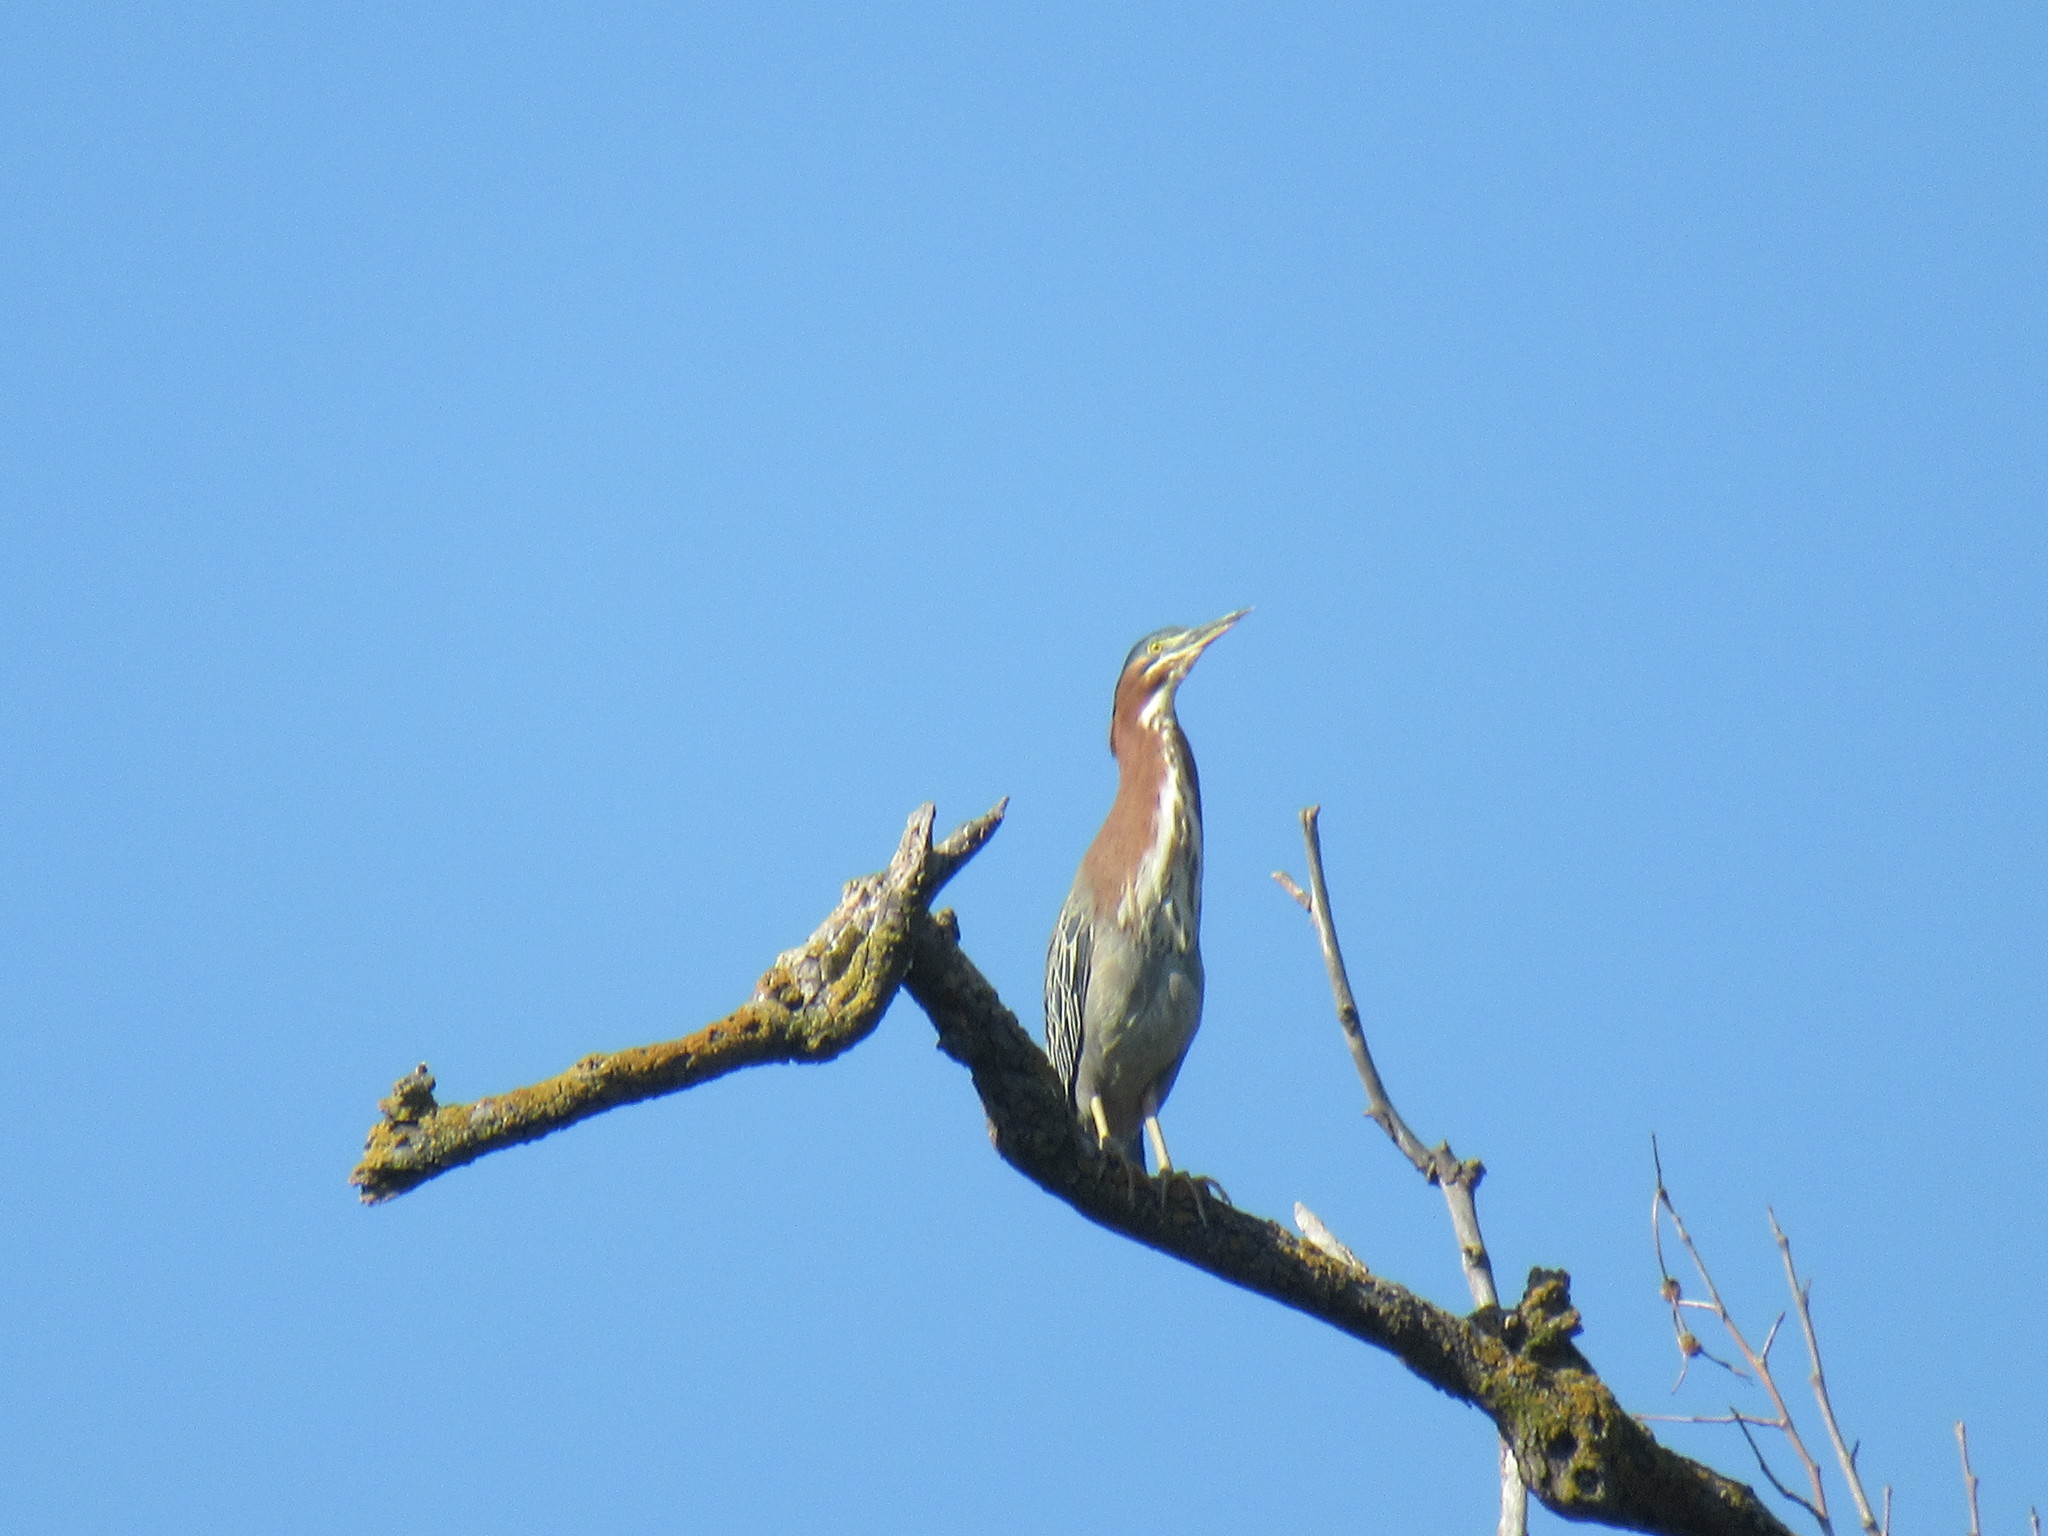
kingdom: Animalia
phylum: Chordata
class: Aves
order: Pelecaniformes
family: Ardeidae
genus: Butorides
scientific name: Butorides virescens
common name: Green heron
